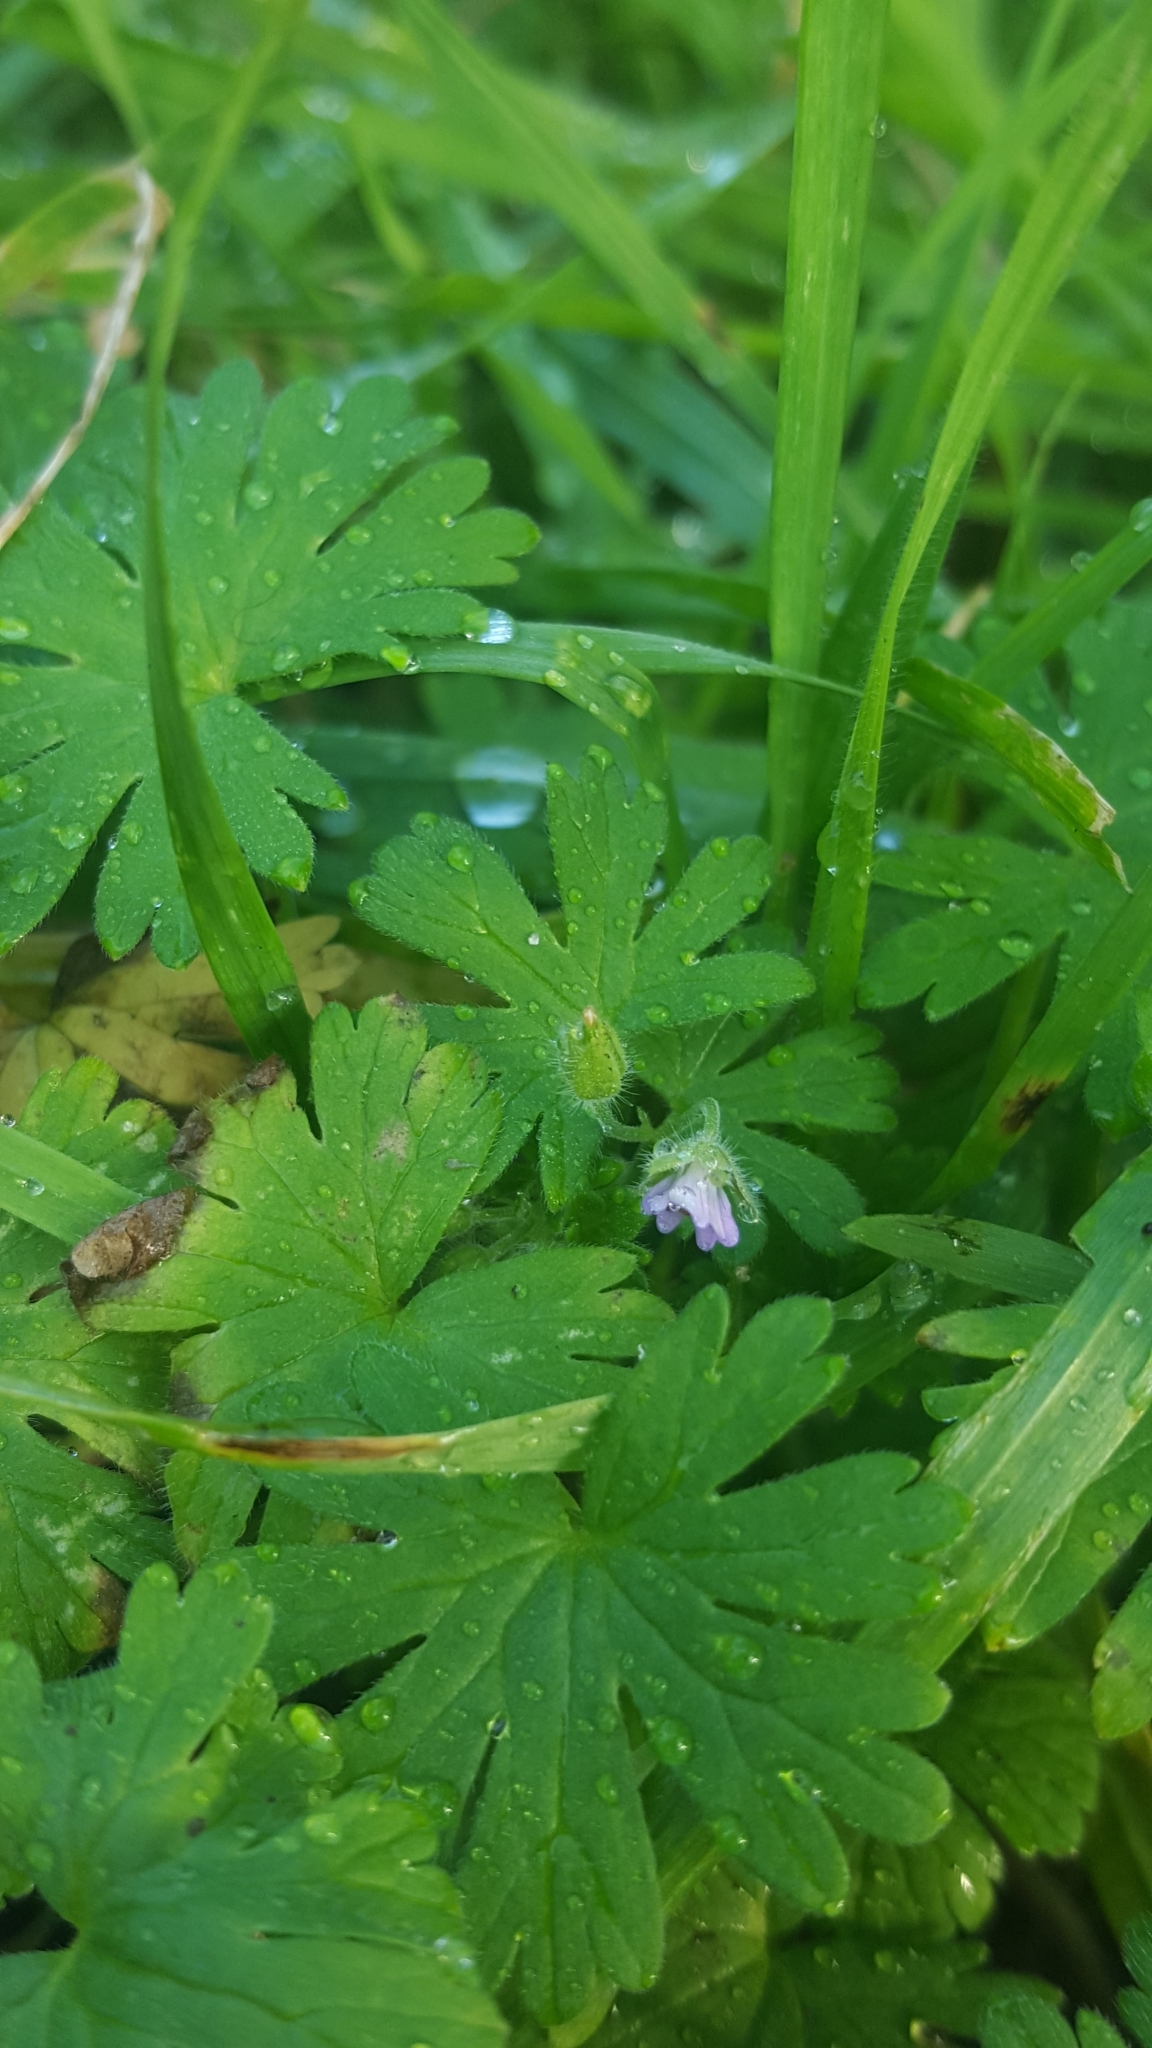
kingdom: Plantae
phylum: Tracheophyta
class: Magnoliopsida
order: Geraniales
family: Geraniaceae
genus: Geranium
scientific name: Geranium pusillum
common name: Small geranium
